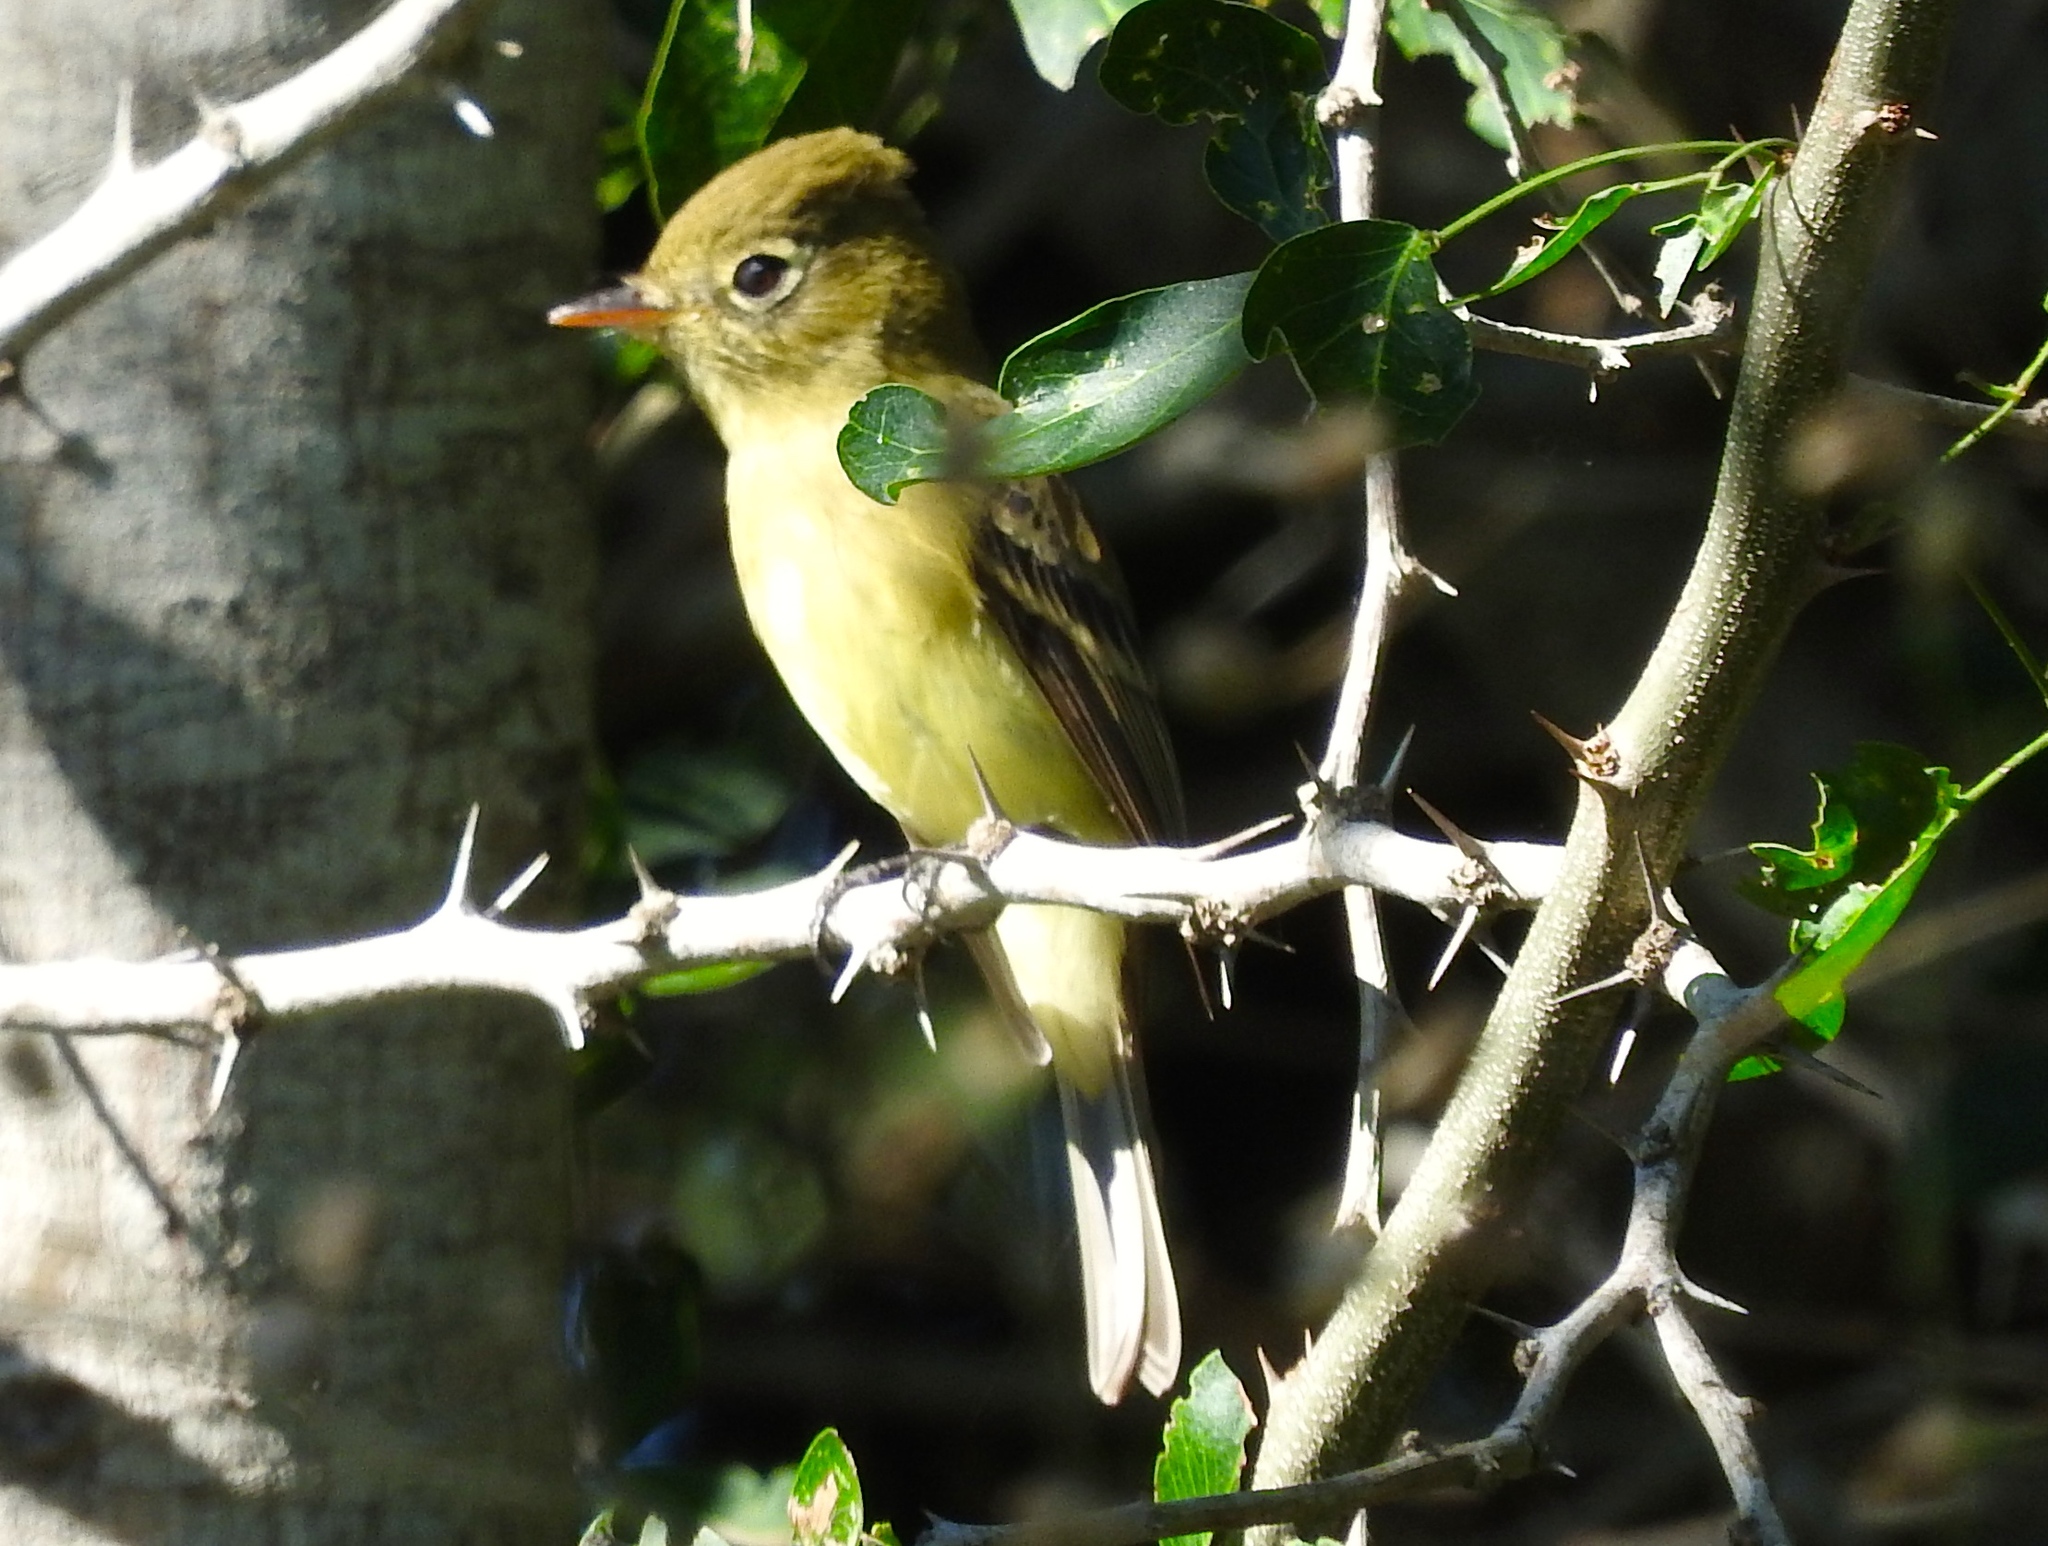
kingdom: Animalia
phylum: Chordata
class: Aves
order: Passeriformes
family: Tyrannidae
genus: Empidonax
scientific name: Empidonax difficilis
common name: Pacific-slope flycatcher
